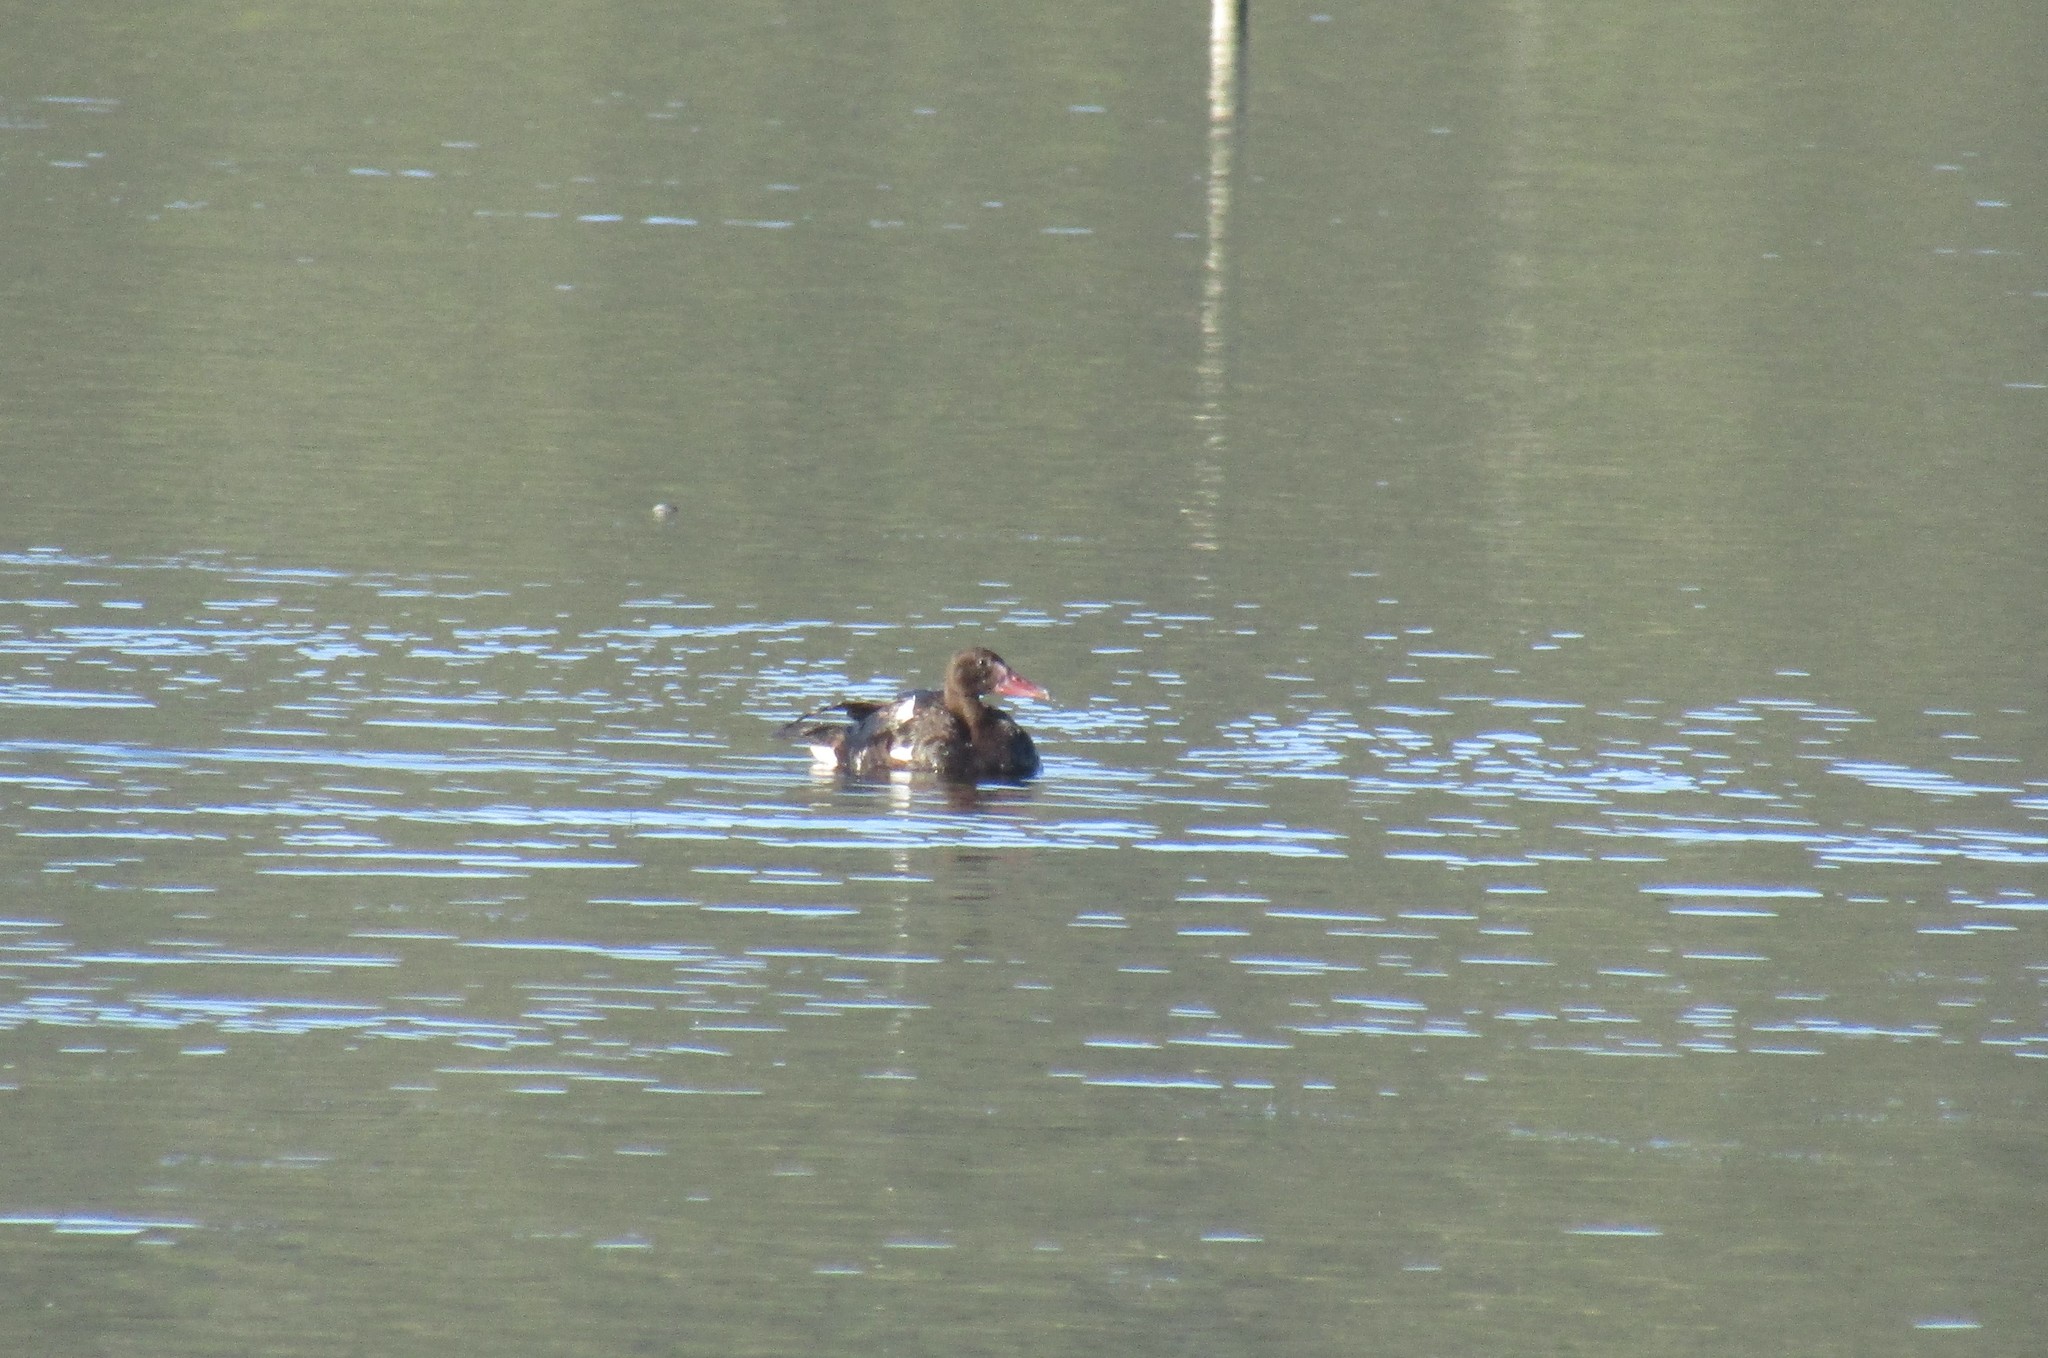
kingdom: Animalia
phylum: Chordata
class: Aves
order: Anseriformes
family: Anatidae
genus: Plectropterus
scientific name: Plectropterus gambensis
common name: Spur-winged goose
